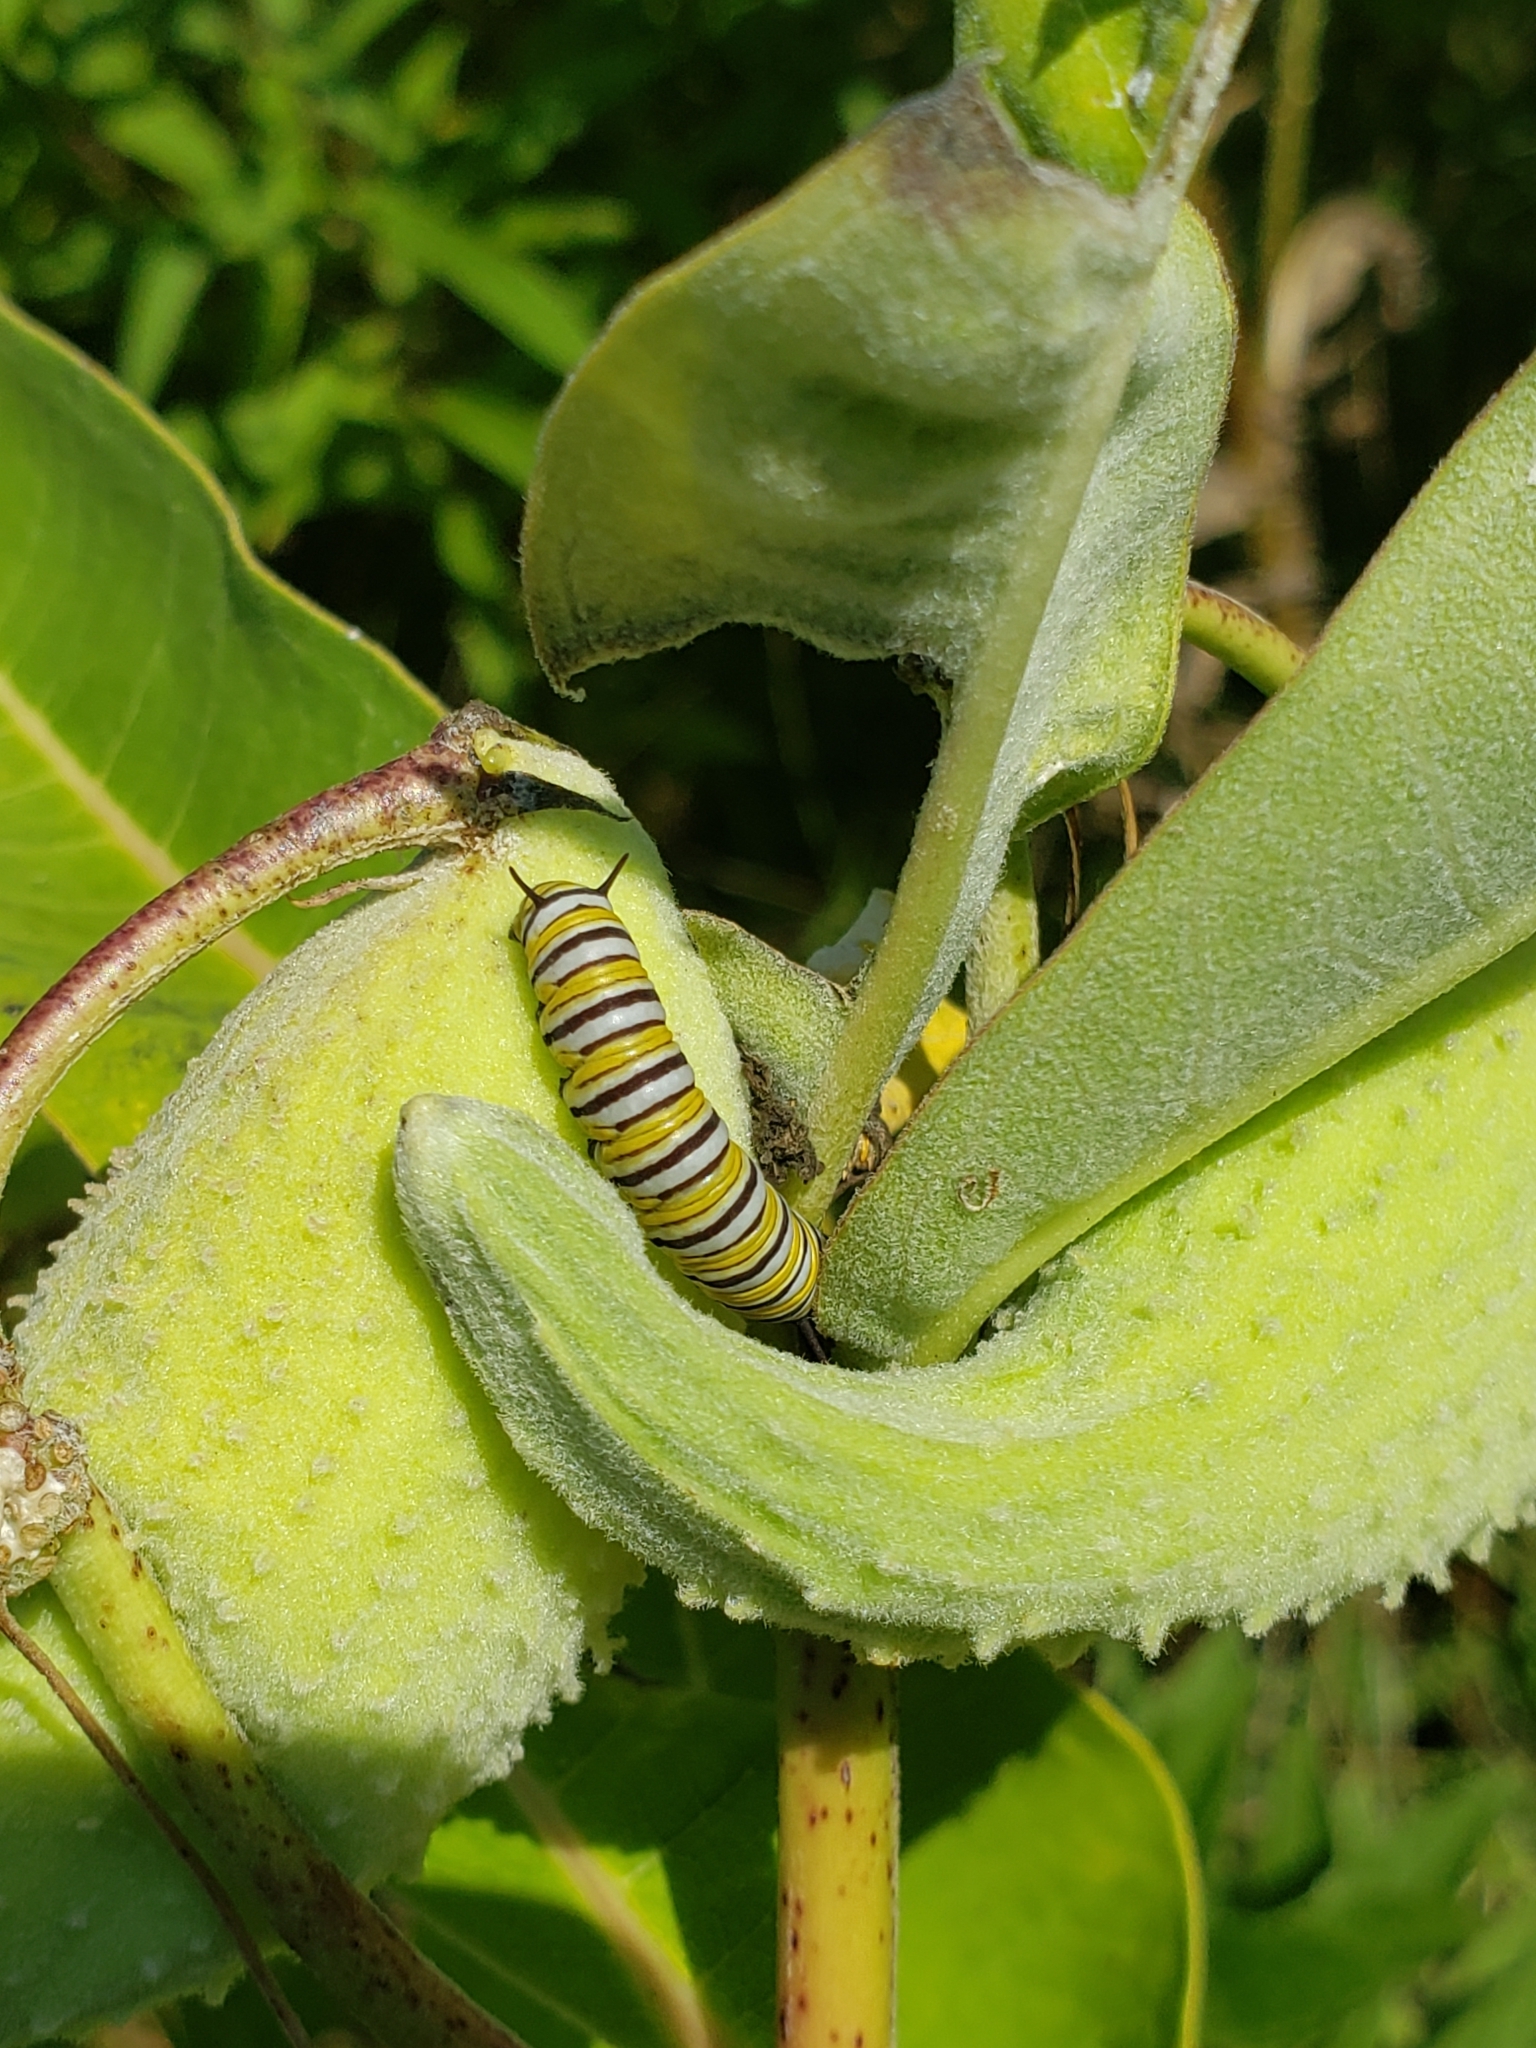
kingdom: Animalia
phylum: Arthropoda
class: Insecta
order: Lepidoptera
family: Nymphalidae
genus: Danaus
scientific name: Danaus plexippus
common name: Monarch
